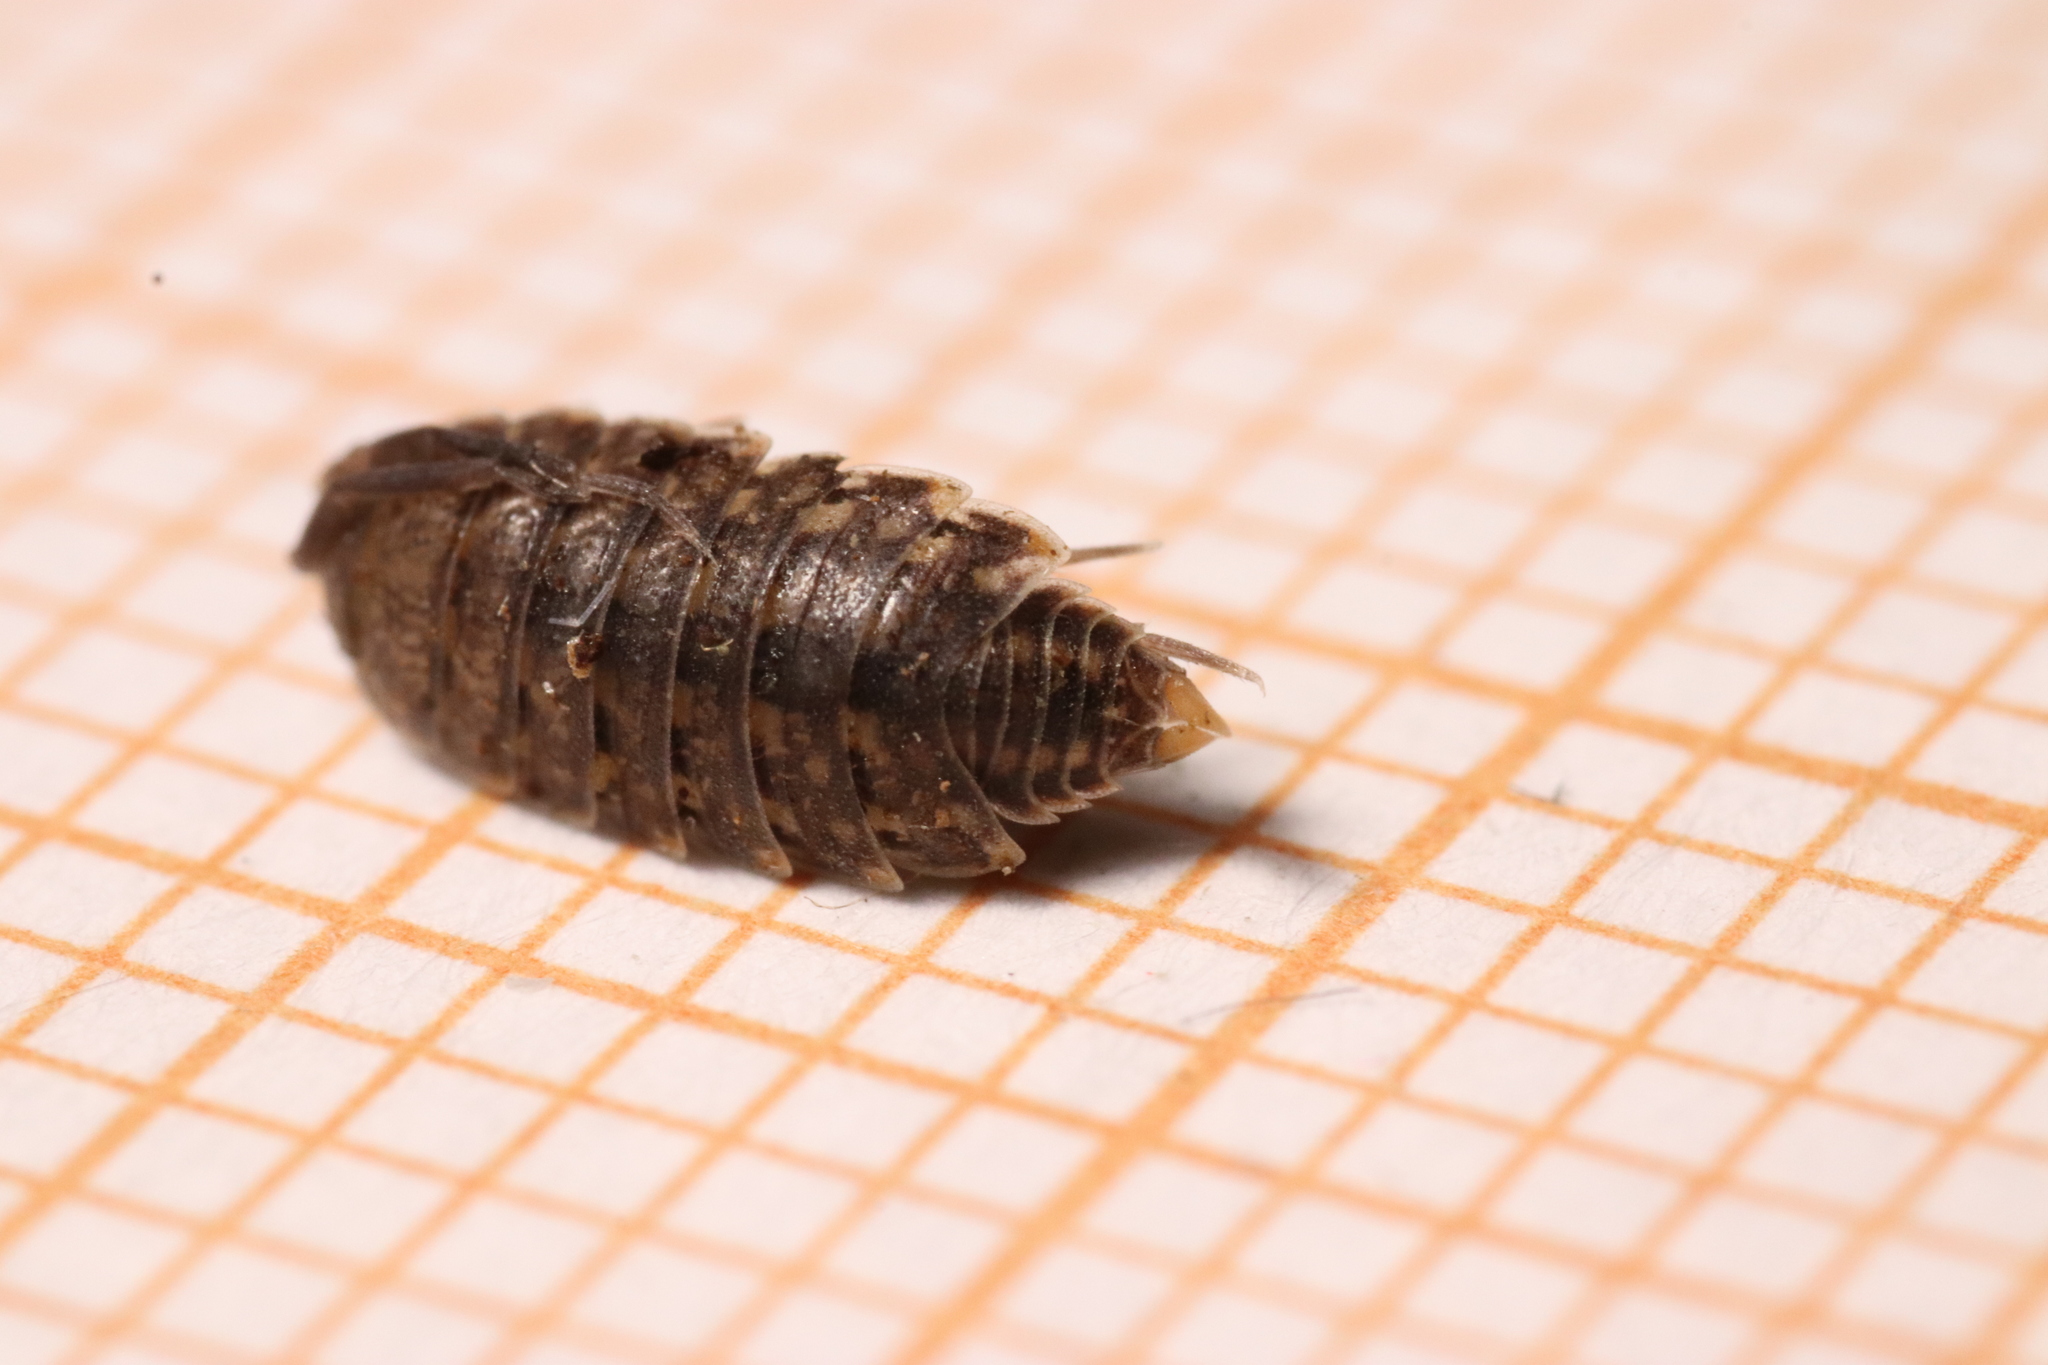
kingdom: Animalia
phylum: Arthropoda
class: Malacostraca
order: Isopoda
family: Agnaridae
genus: Orthometopon
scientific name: Orthometopon planum
